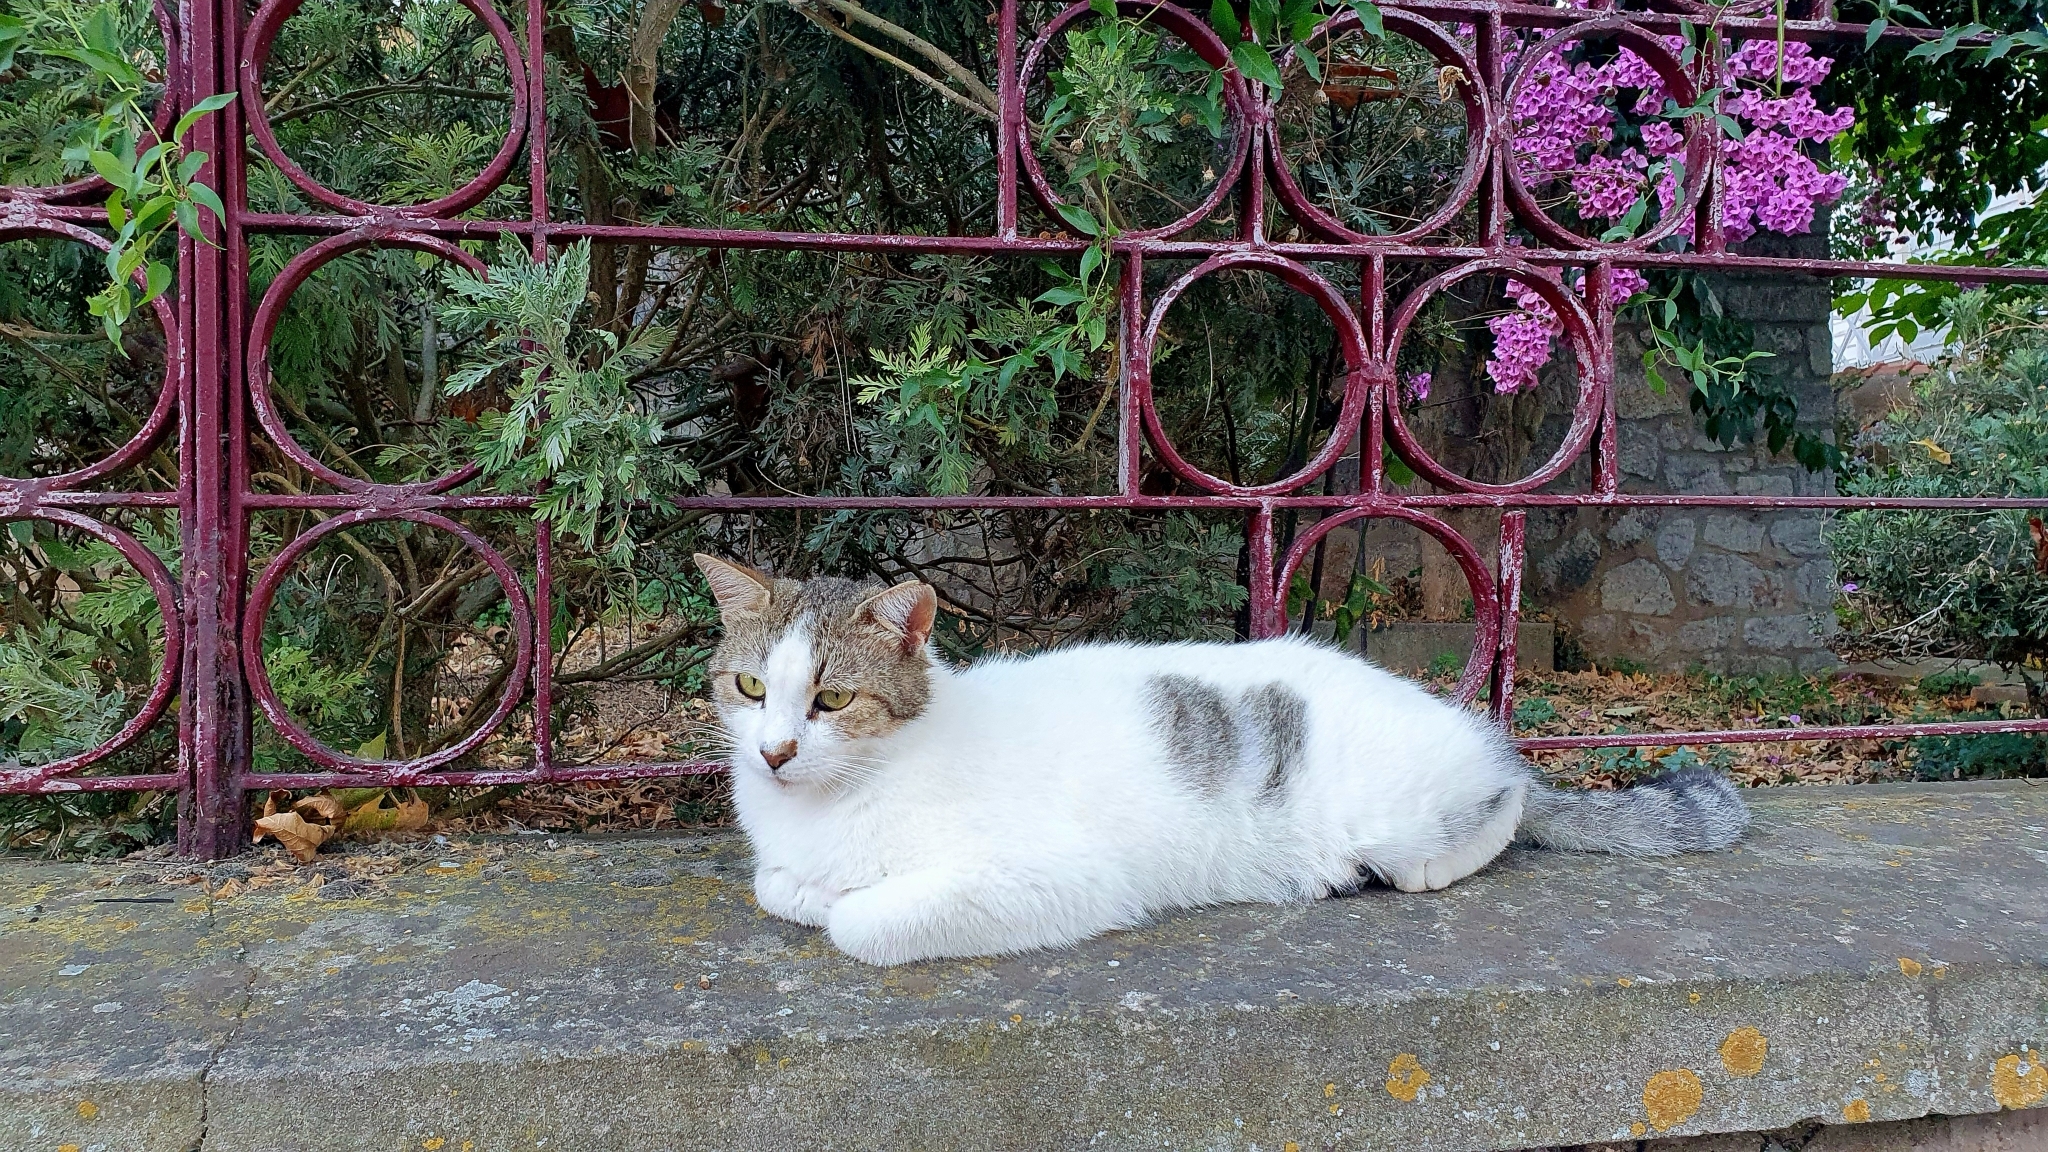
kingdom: Animalia
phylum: Chordata
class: Mammalia
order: Carnivora
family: Felidae
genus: Felis
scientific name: Felis catus
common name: Domestic cat
